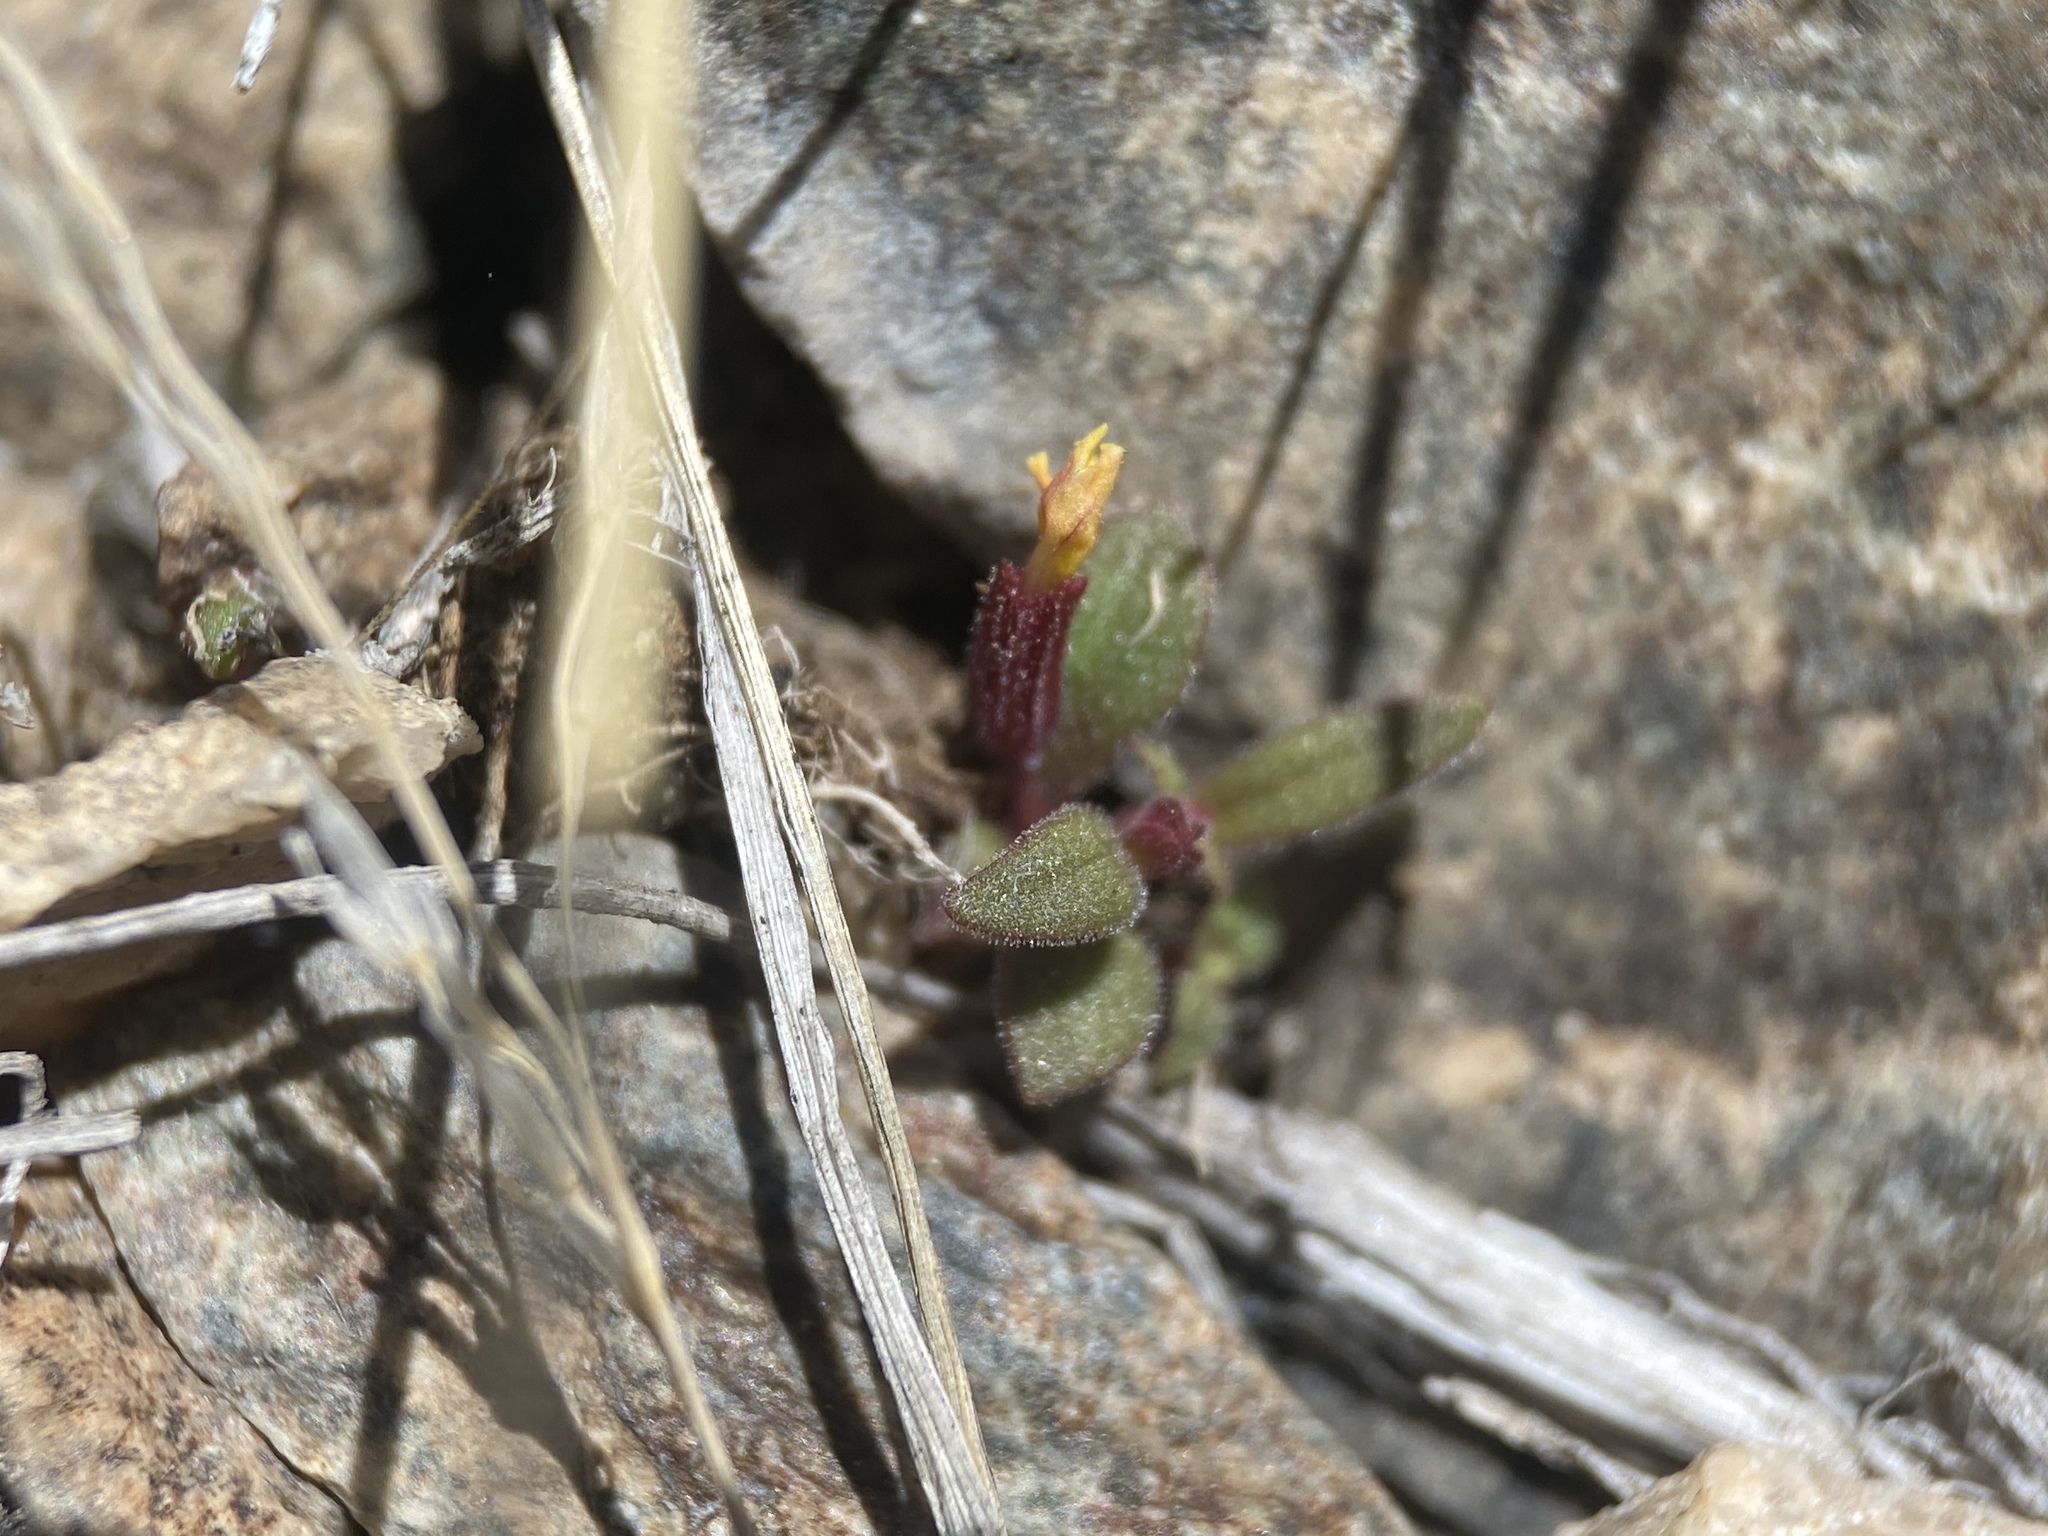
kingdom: Plantae
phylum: Tracheophyta
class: Magnoliopsida
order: Lamiales
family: Phrymaceae
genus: Erythranthe
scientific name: Erythranthe suksdorfii
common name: Suksdorf's monkeyflower
